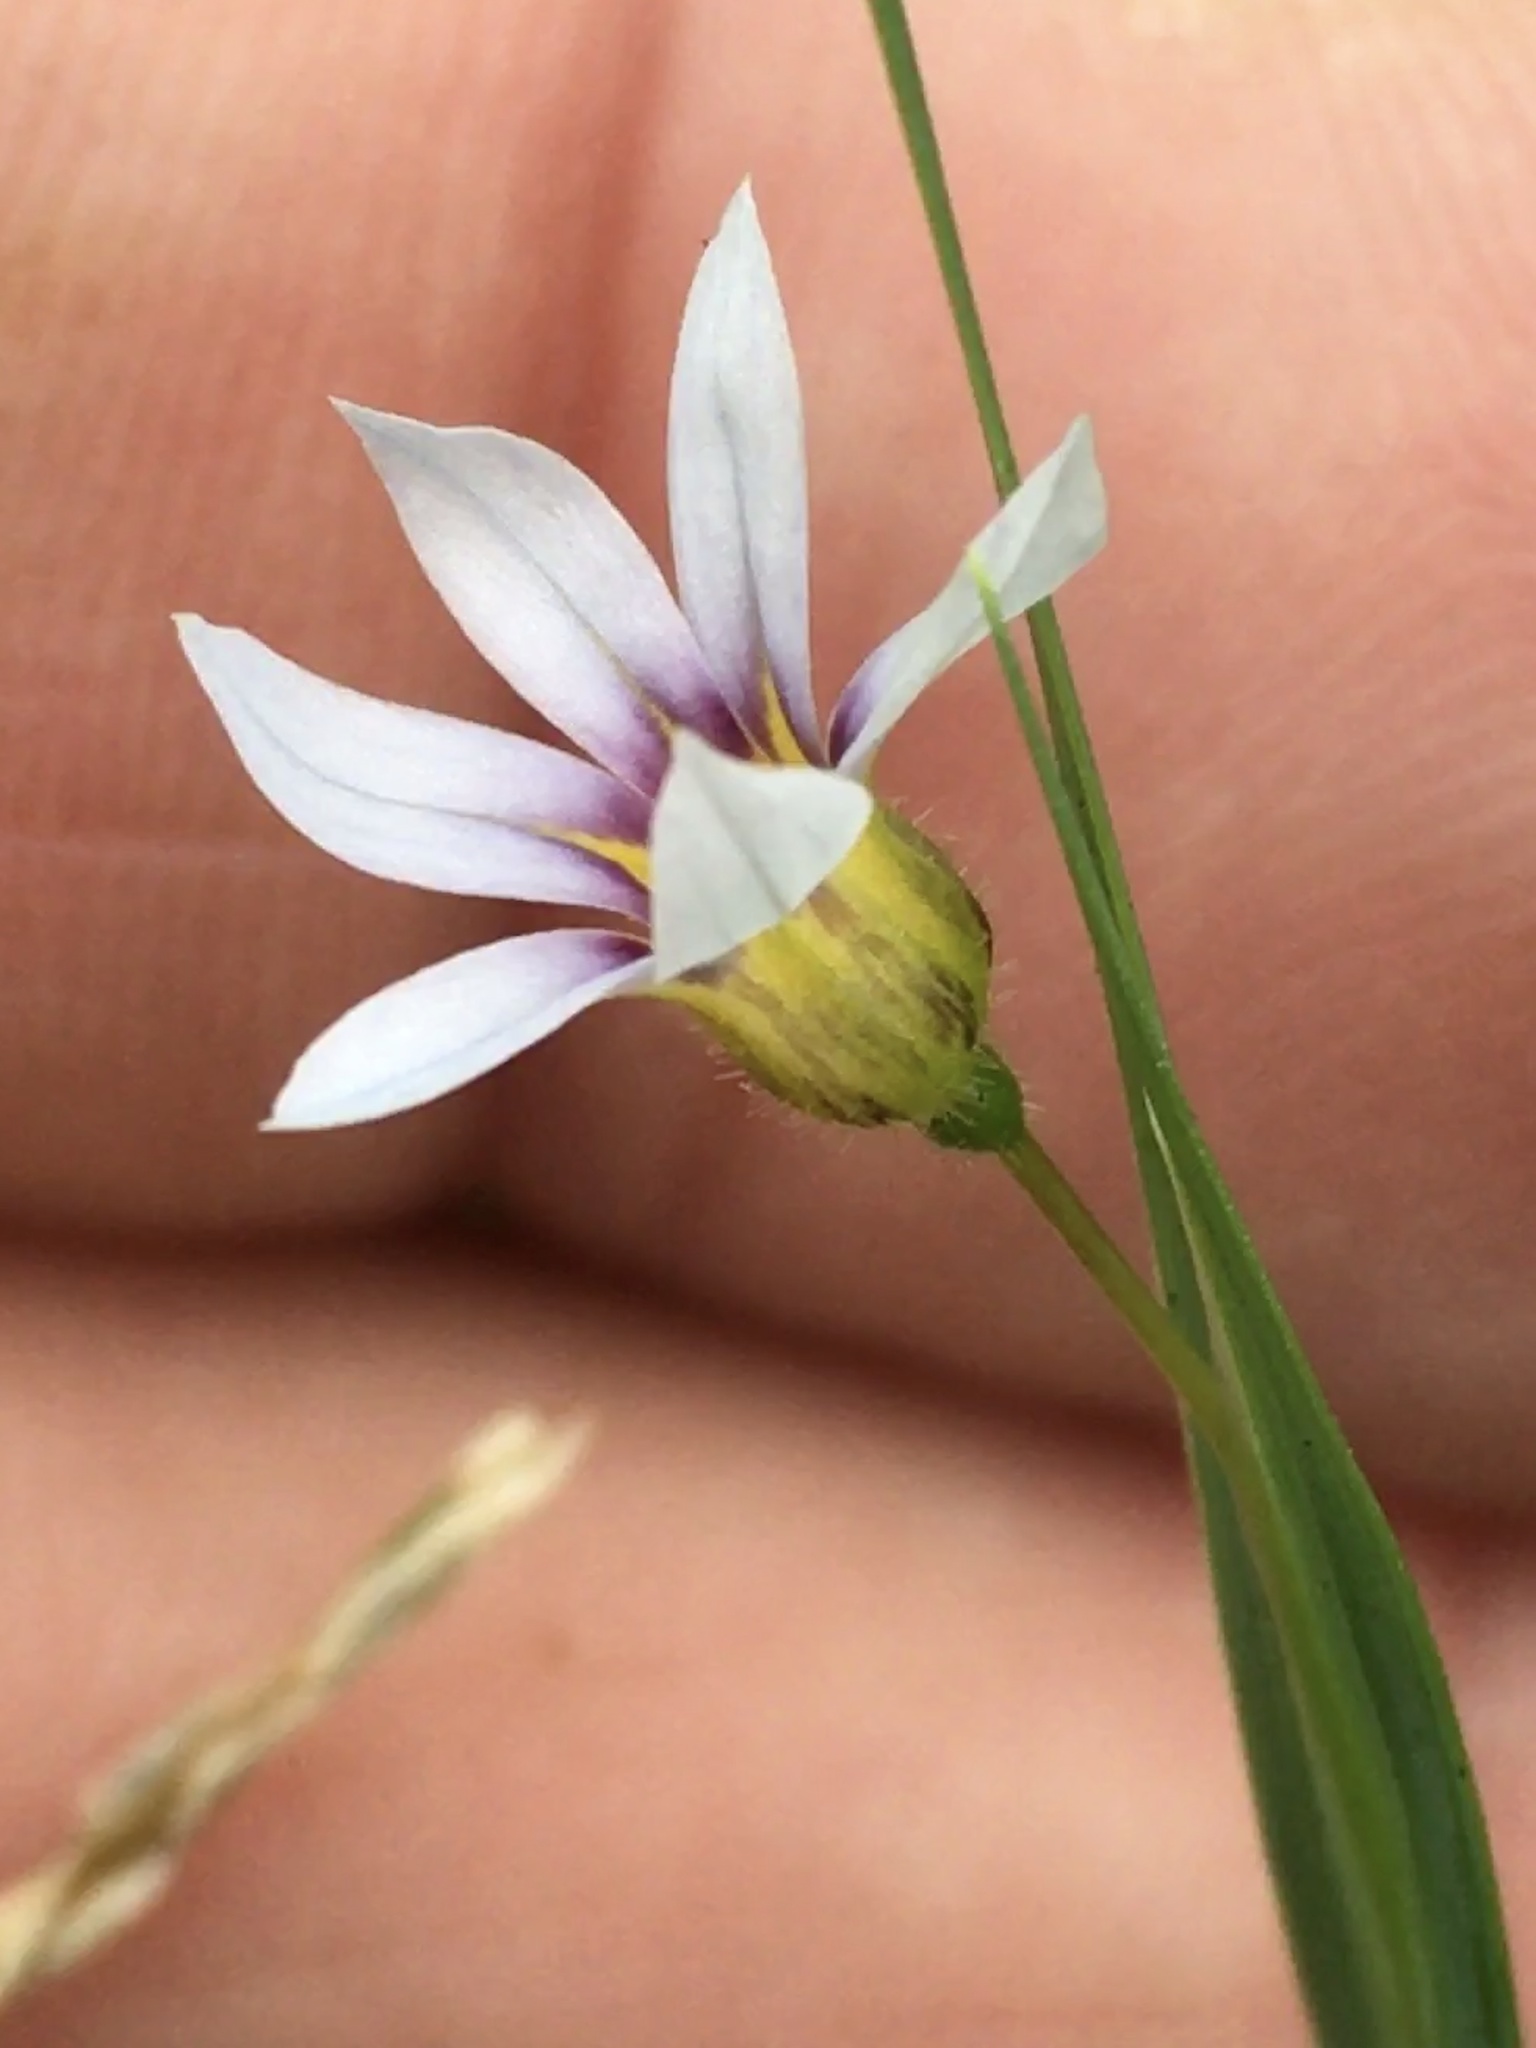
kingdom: Plantae
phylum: Tracheophyta
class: Liliopsida
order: Asparagales
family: Iridaceae
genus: Sisyrinchium
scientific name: Sisyrinchium micranthum
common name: Bermuda pigroot
